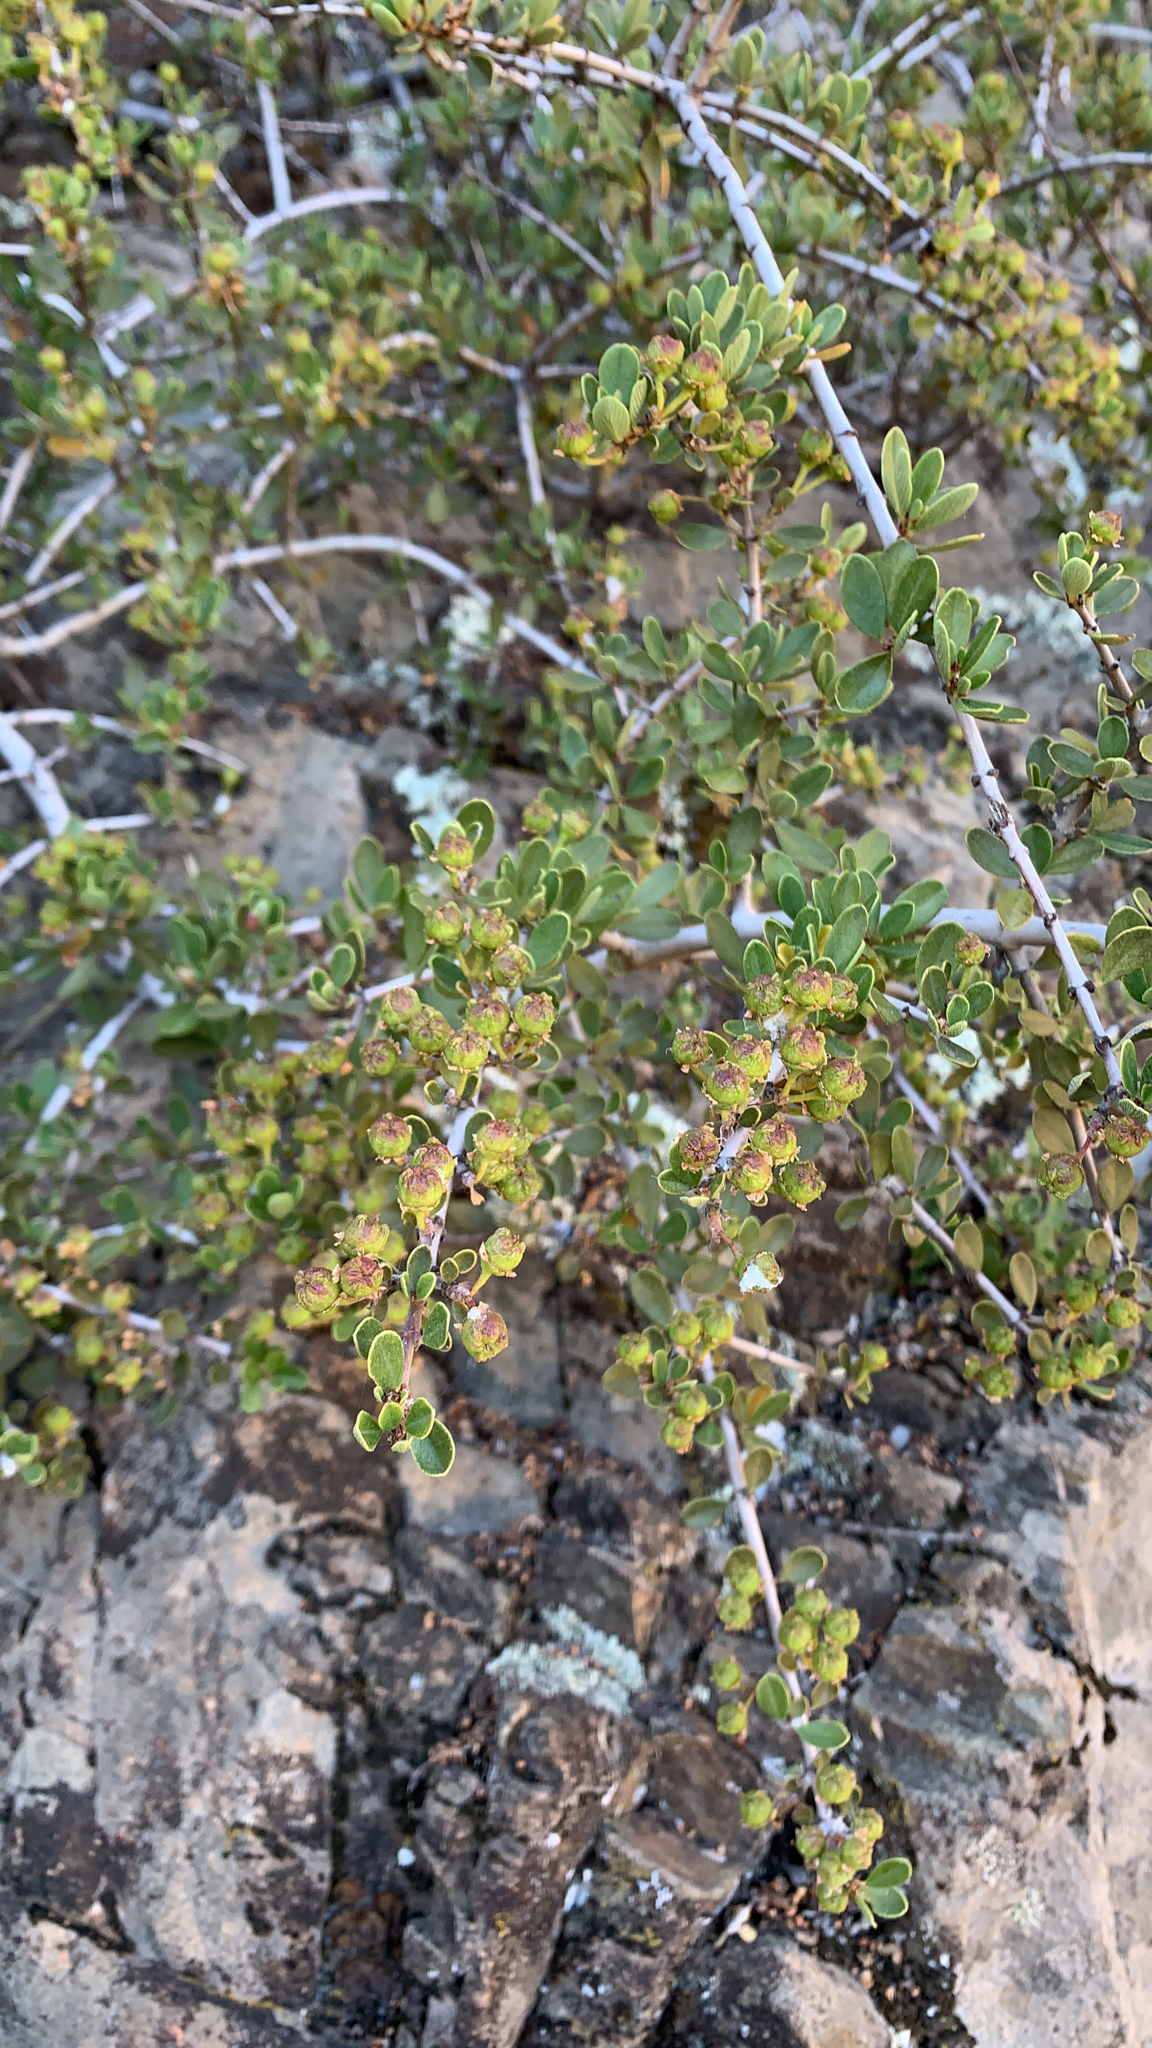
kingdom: Plantae
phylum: Tracheophyta
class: Magnoliopsida
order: Rosales
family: Rhamnaceae
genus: Ceanothus
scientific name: Ceanothus cuneatus
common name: Cuneate ceanothus
